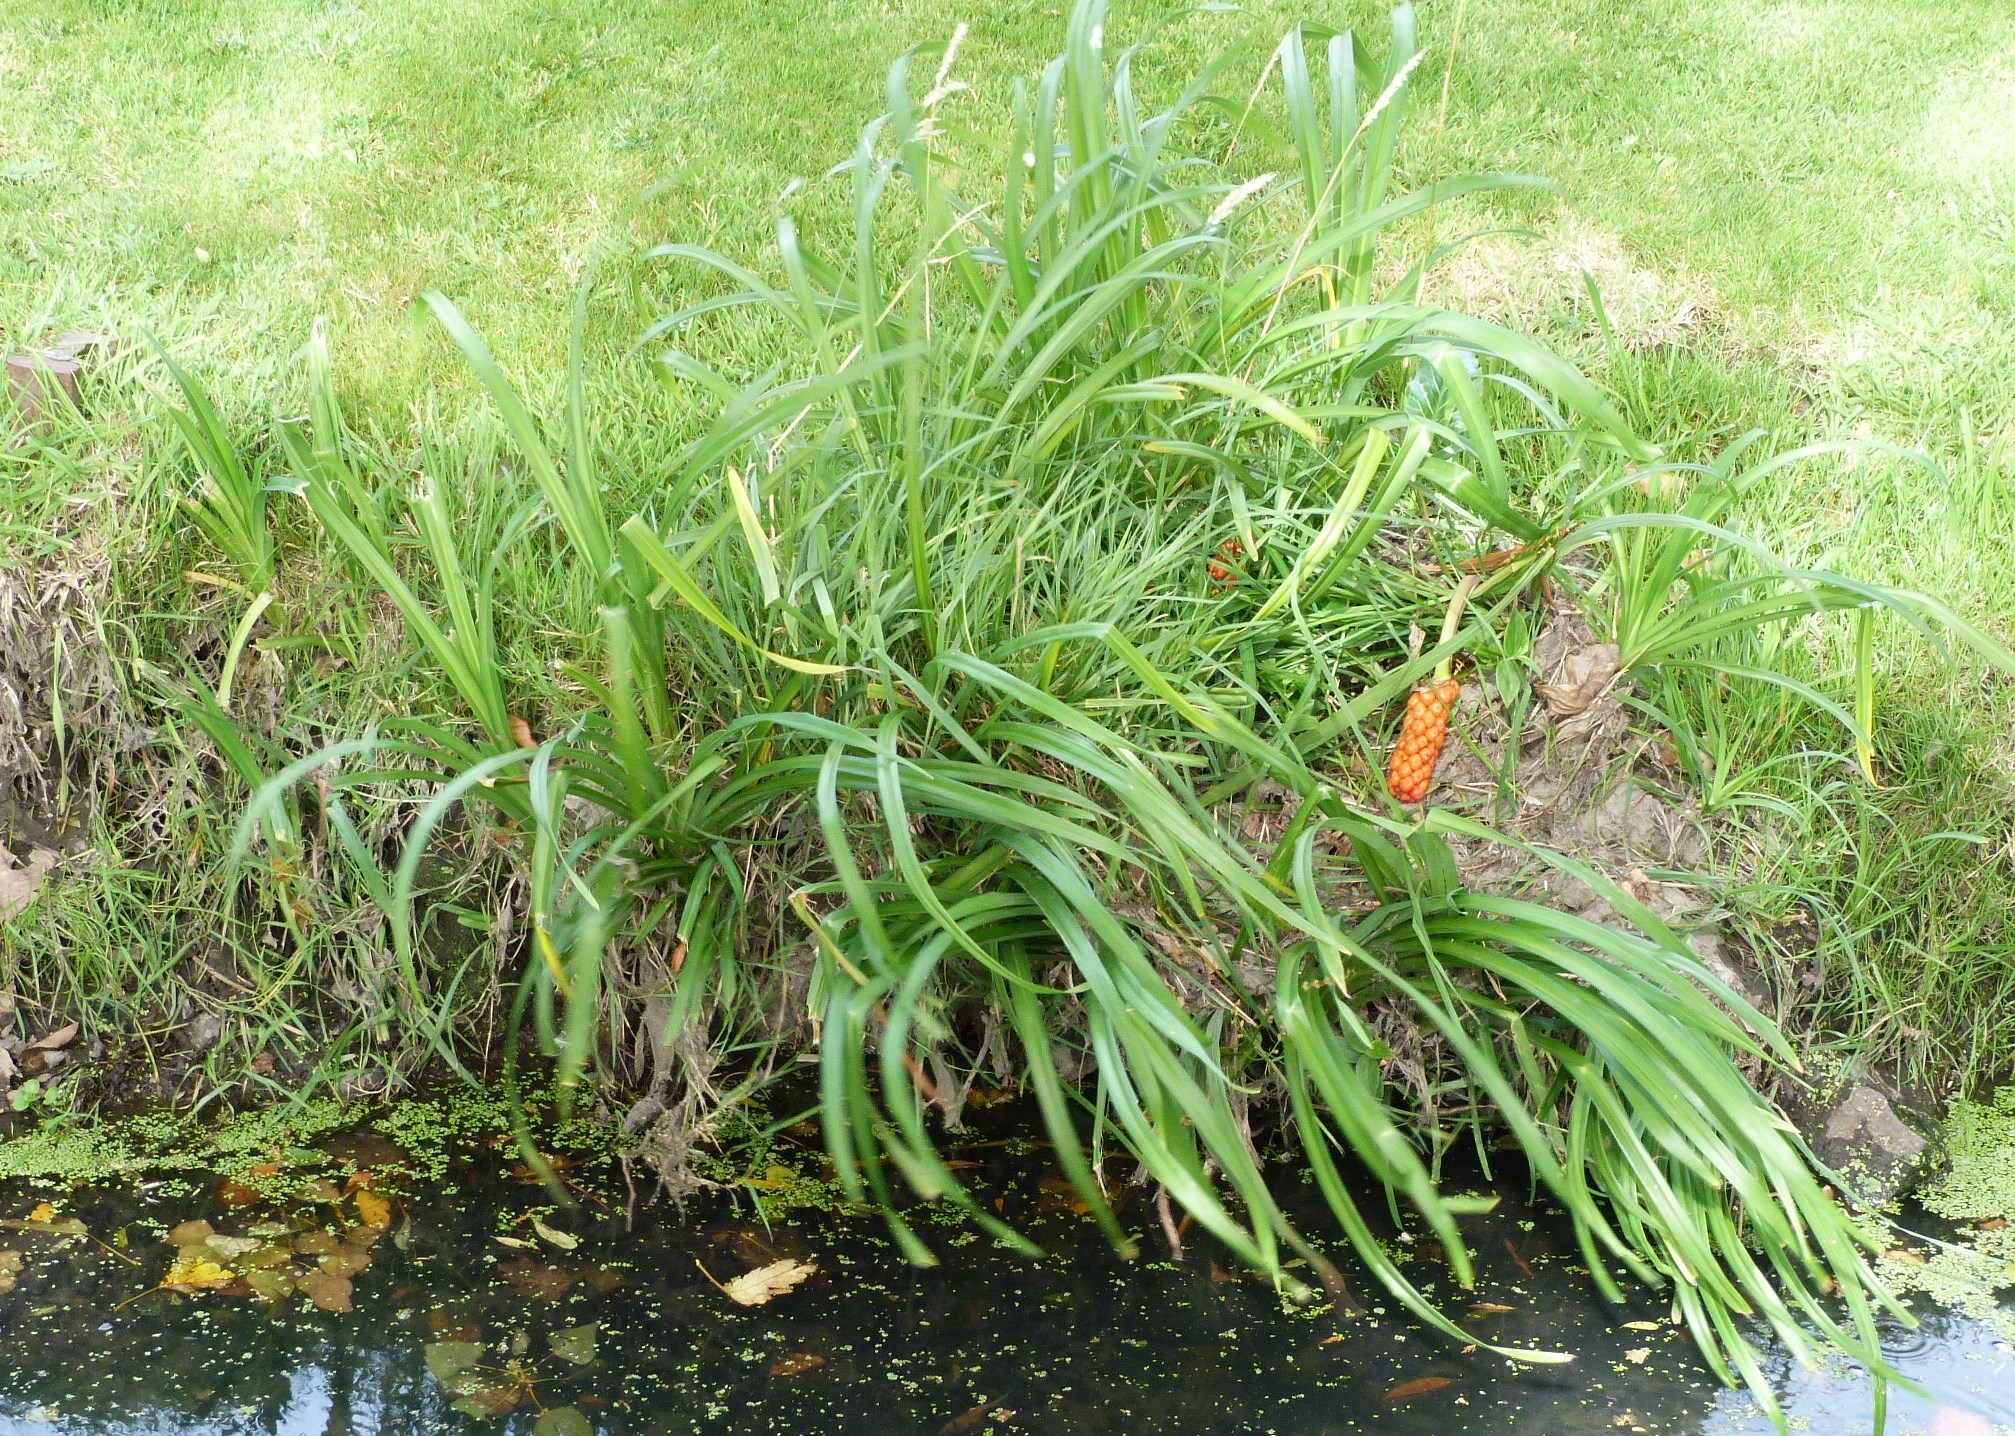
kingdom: Plantae
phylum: Tracheophyta
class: Liliopsida
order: Poales
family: Cyperaceae
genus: Carex
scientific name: Carex pendula
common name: Pendulous sedge
